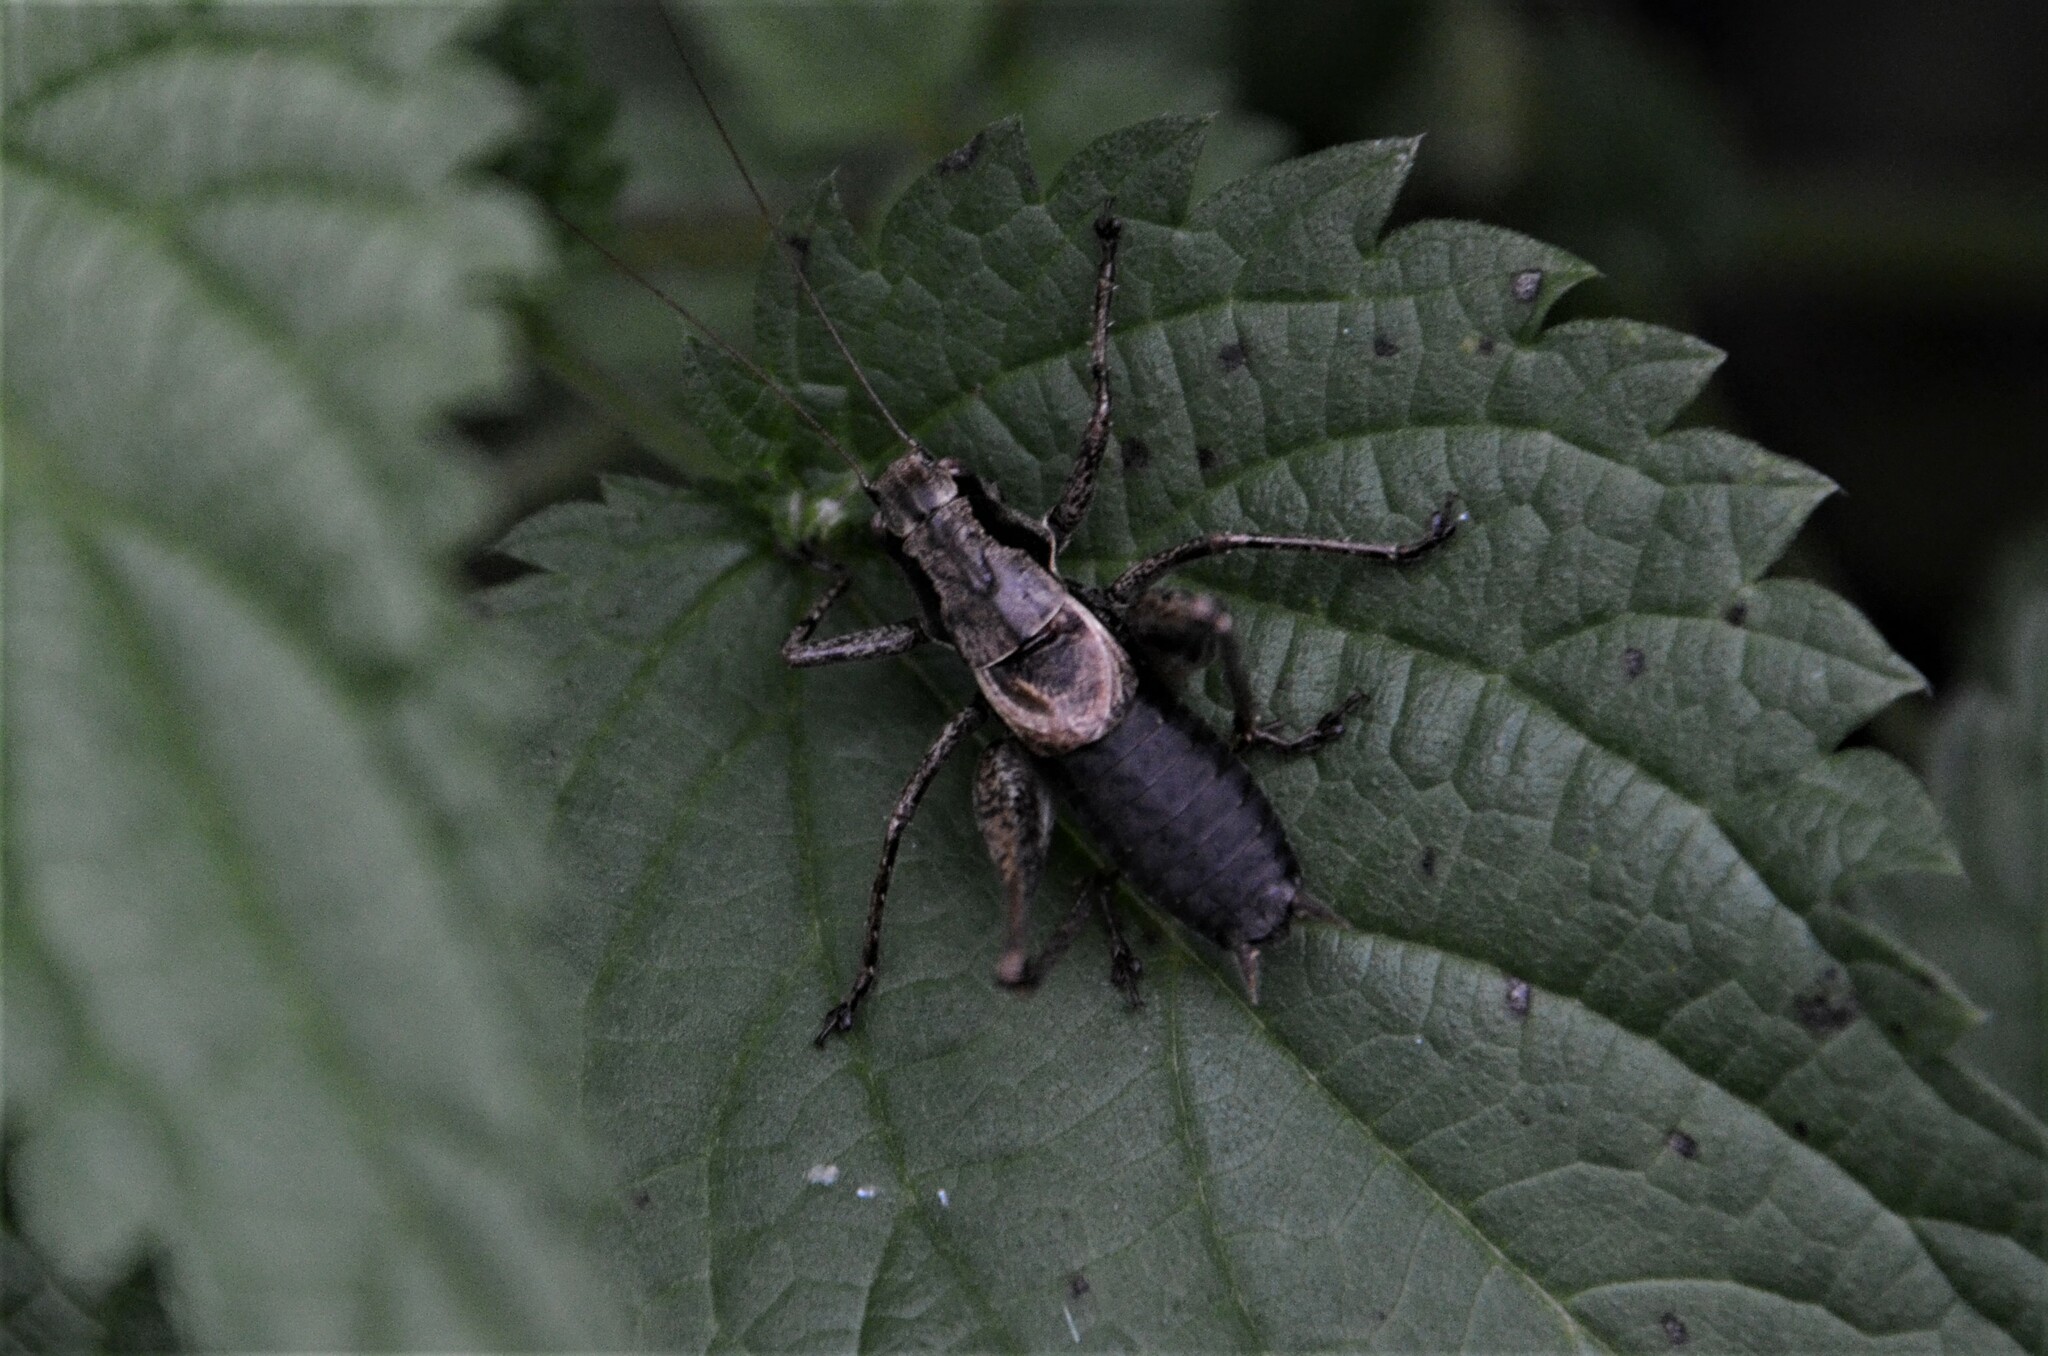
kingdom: Animalia
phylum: Arthropoda
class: Insecta
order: Orthoptera
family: Tettigoniidae
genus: Pholidoptera
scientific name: Pholidoptera griseoaptera
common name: Dark bush-cricket
